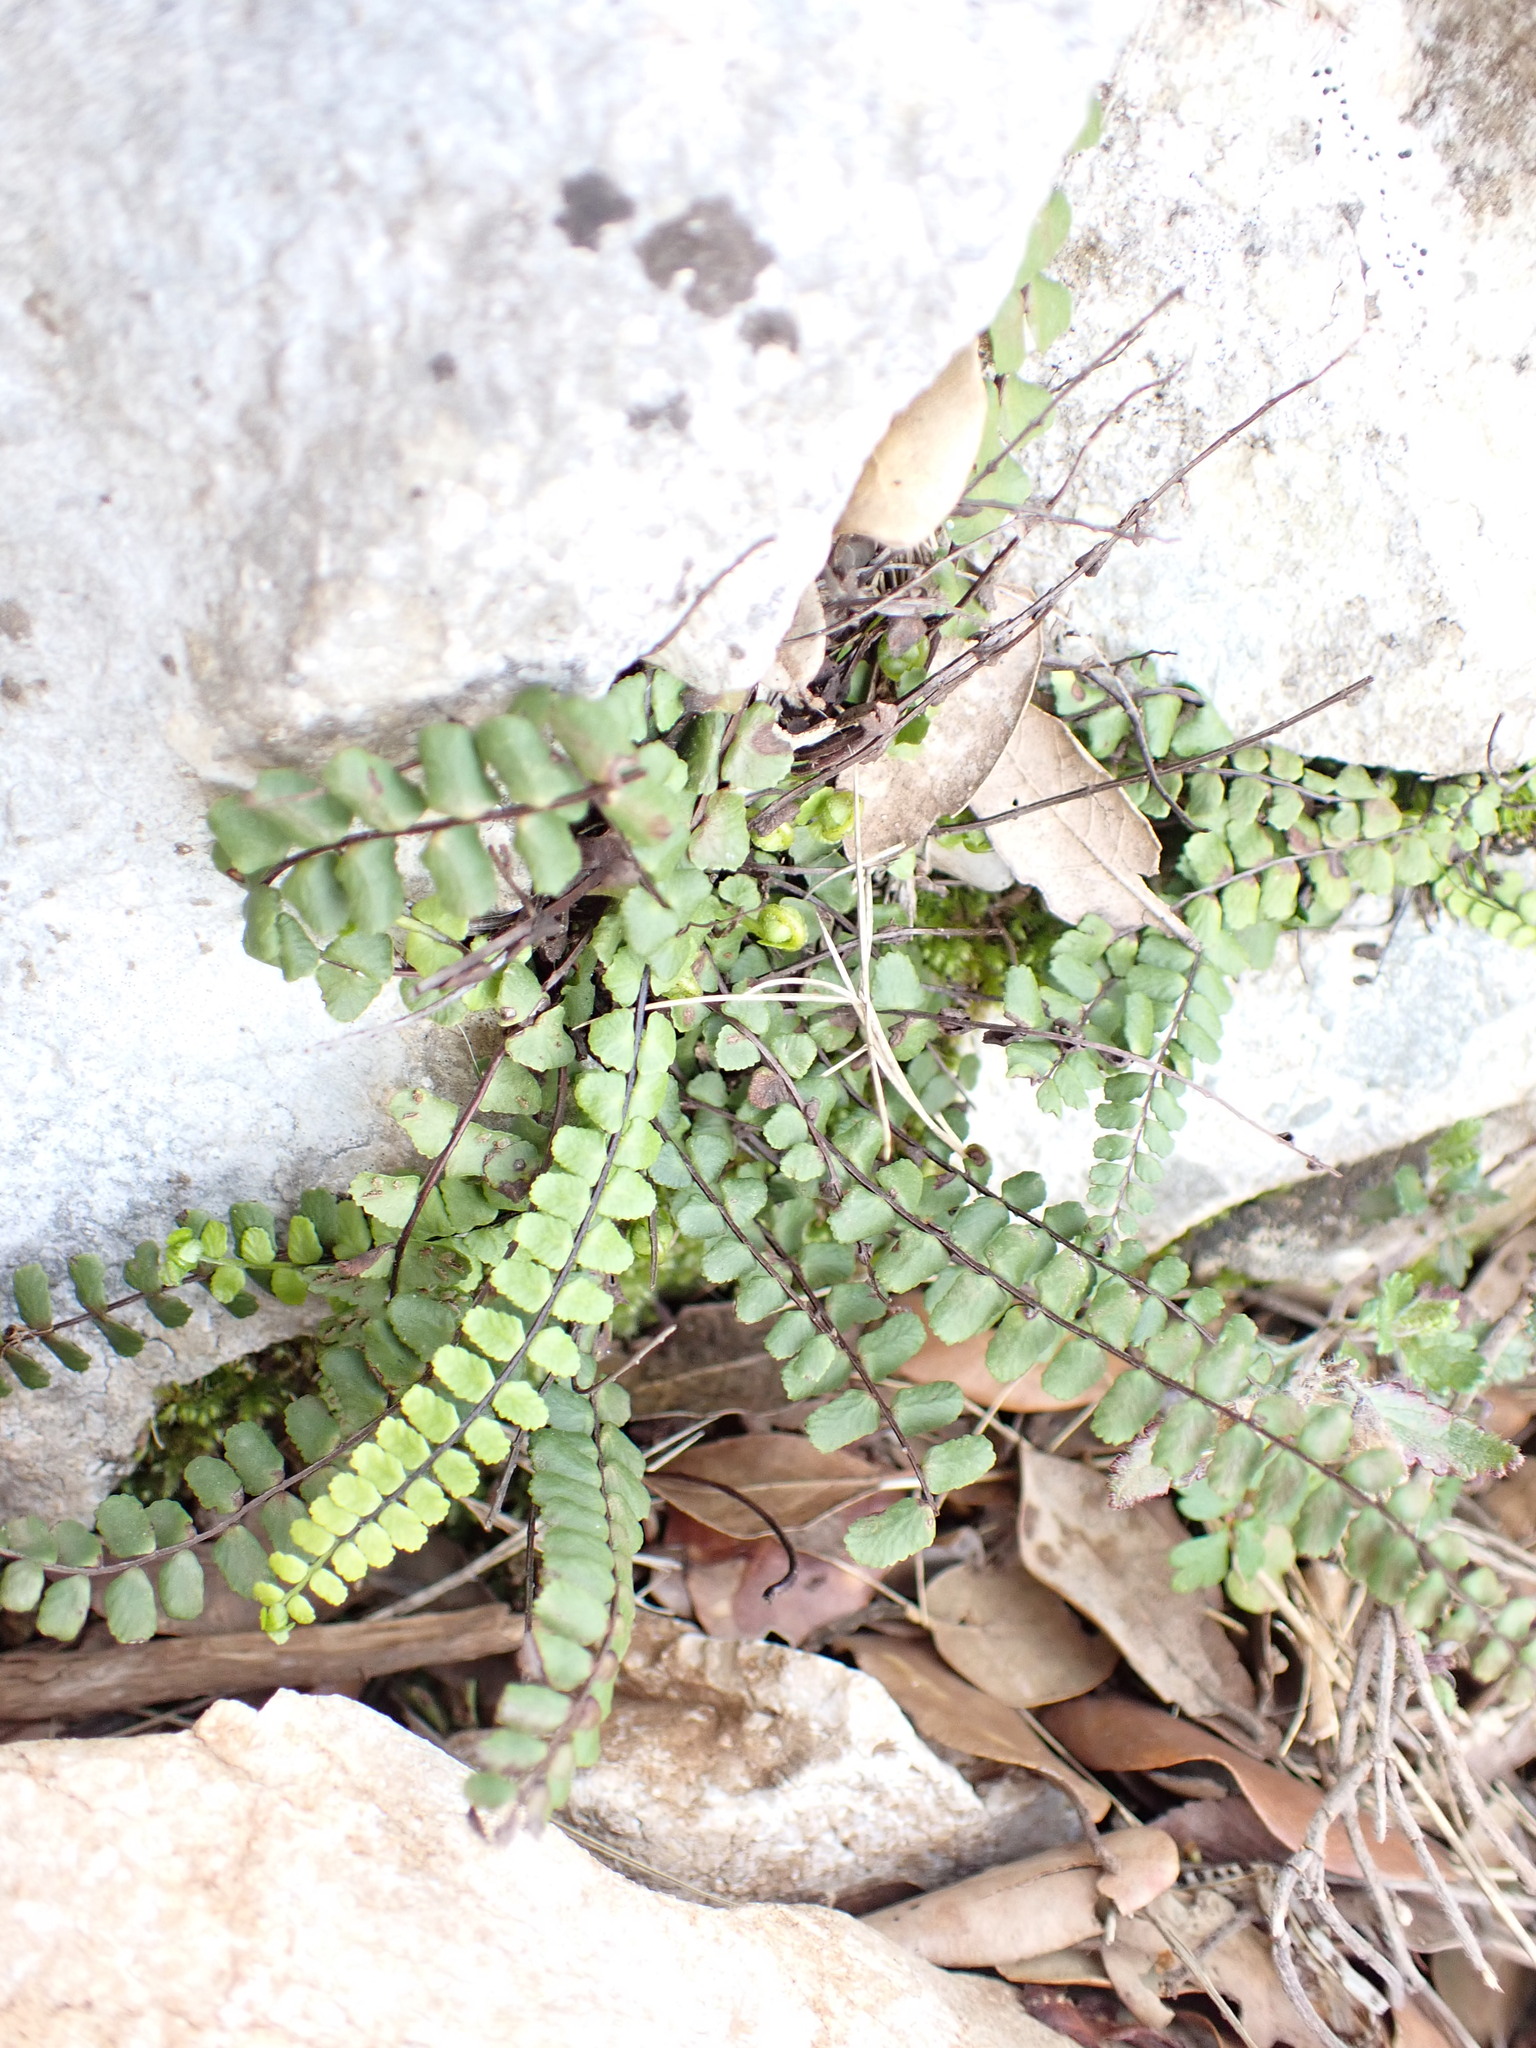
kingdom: Plantae
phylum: Tracheophyta
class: Polypodiopsida
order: Polypodiales
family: Aspleniaceae
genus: Asplenium
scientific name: Asplenium trichomanes
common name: Maidenhair spleenwort
